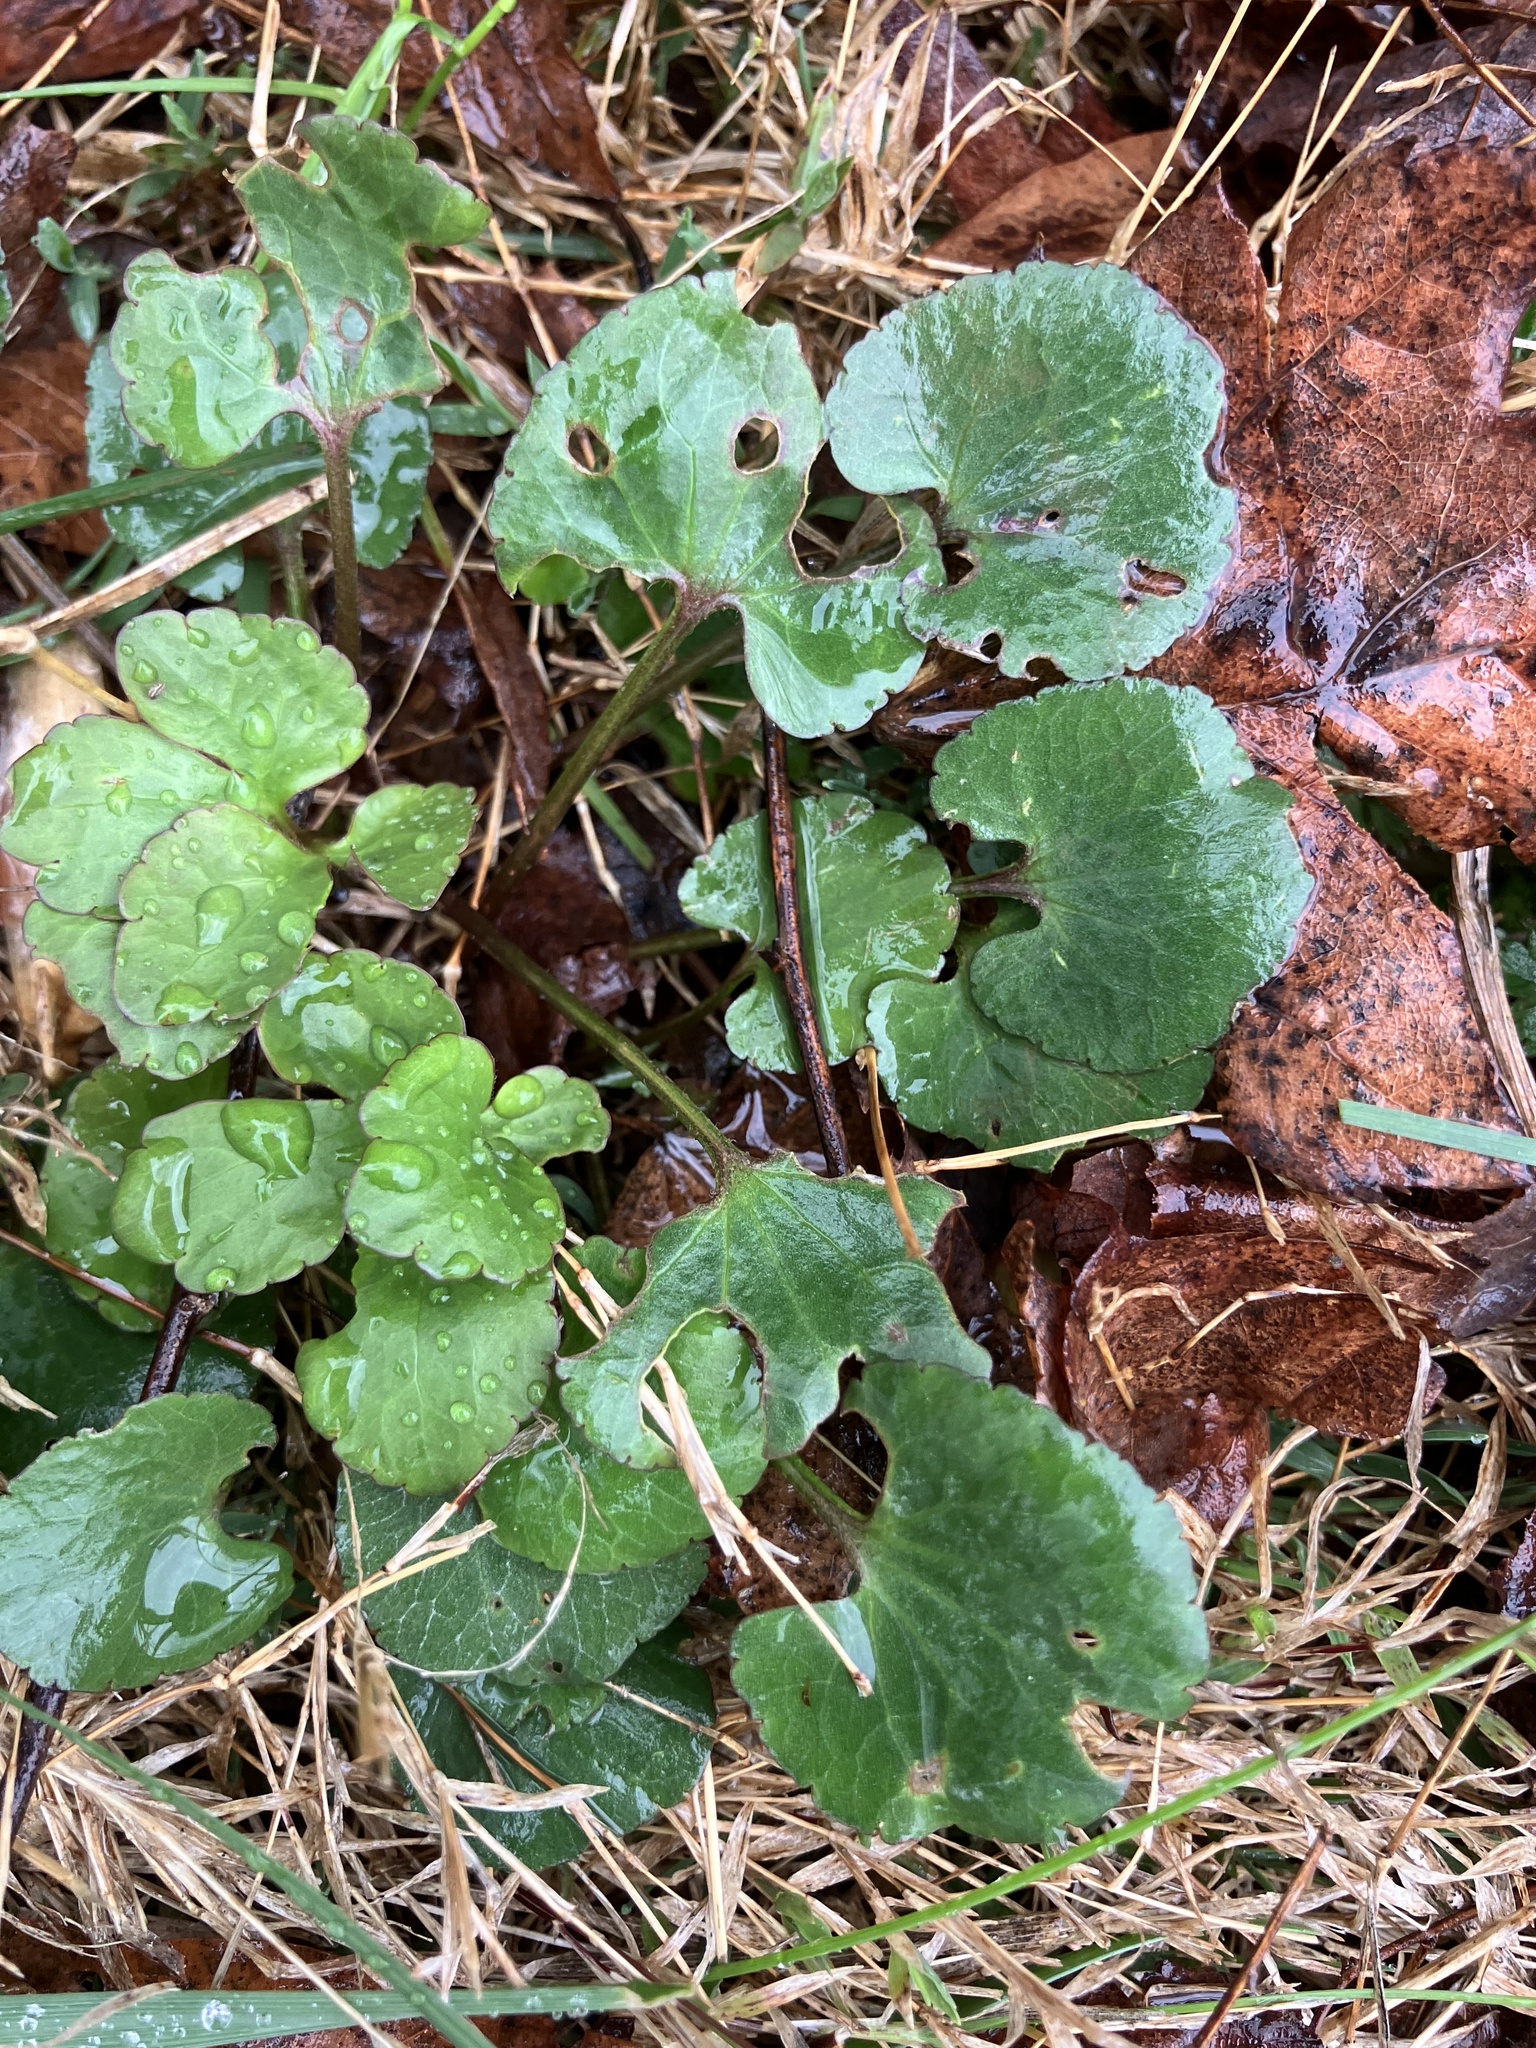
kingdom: Plantae
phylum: Tracheophyta
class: Magnoliopsida
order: Ranunculales
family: Ranunculaceae
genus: Ranunculus
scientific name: Ranunculus abortivus
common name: Early wood buttercup
